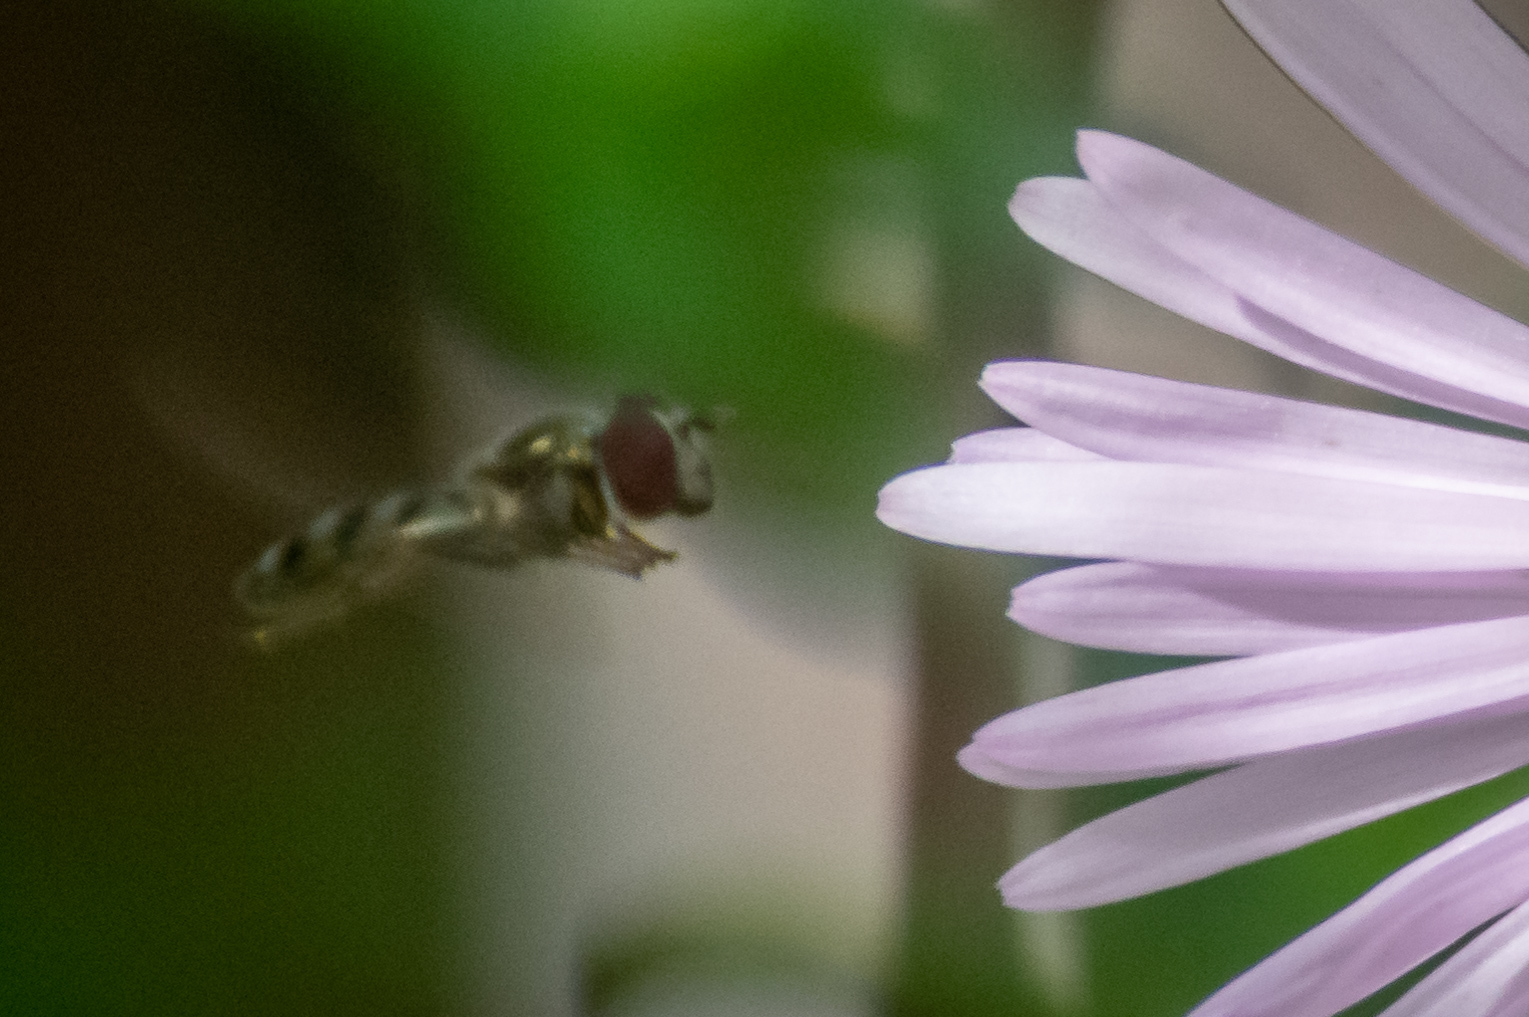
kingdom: Animalia
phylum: Arthropoda
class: Insecta
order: Diptera
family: Syrphidae
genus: Platycheirus
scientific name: Platycheirus obscurus
